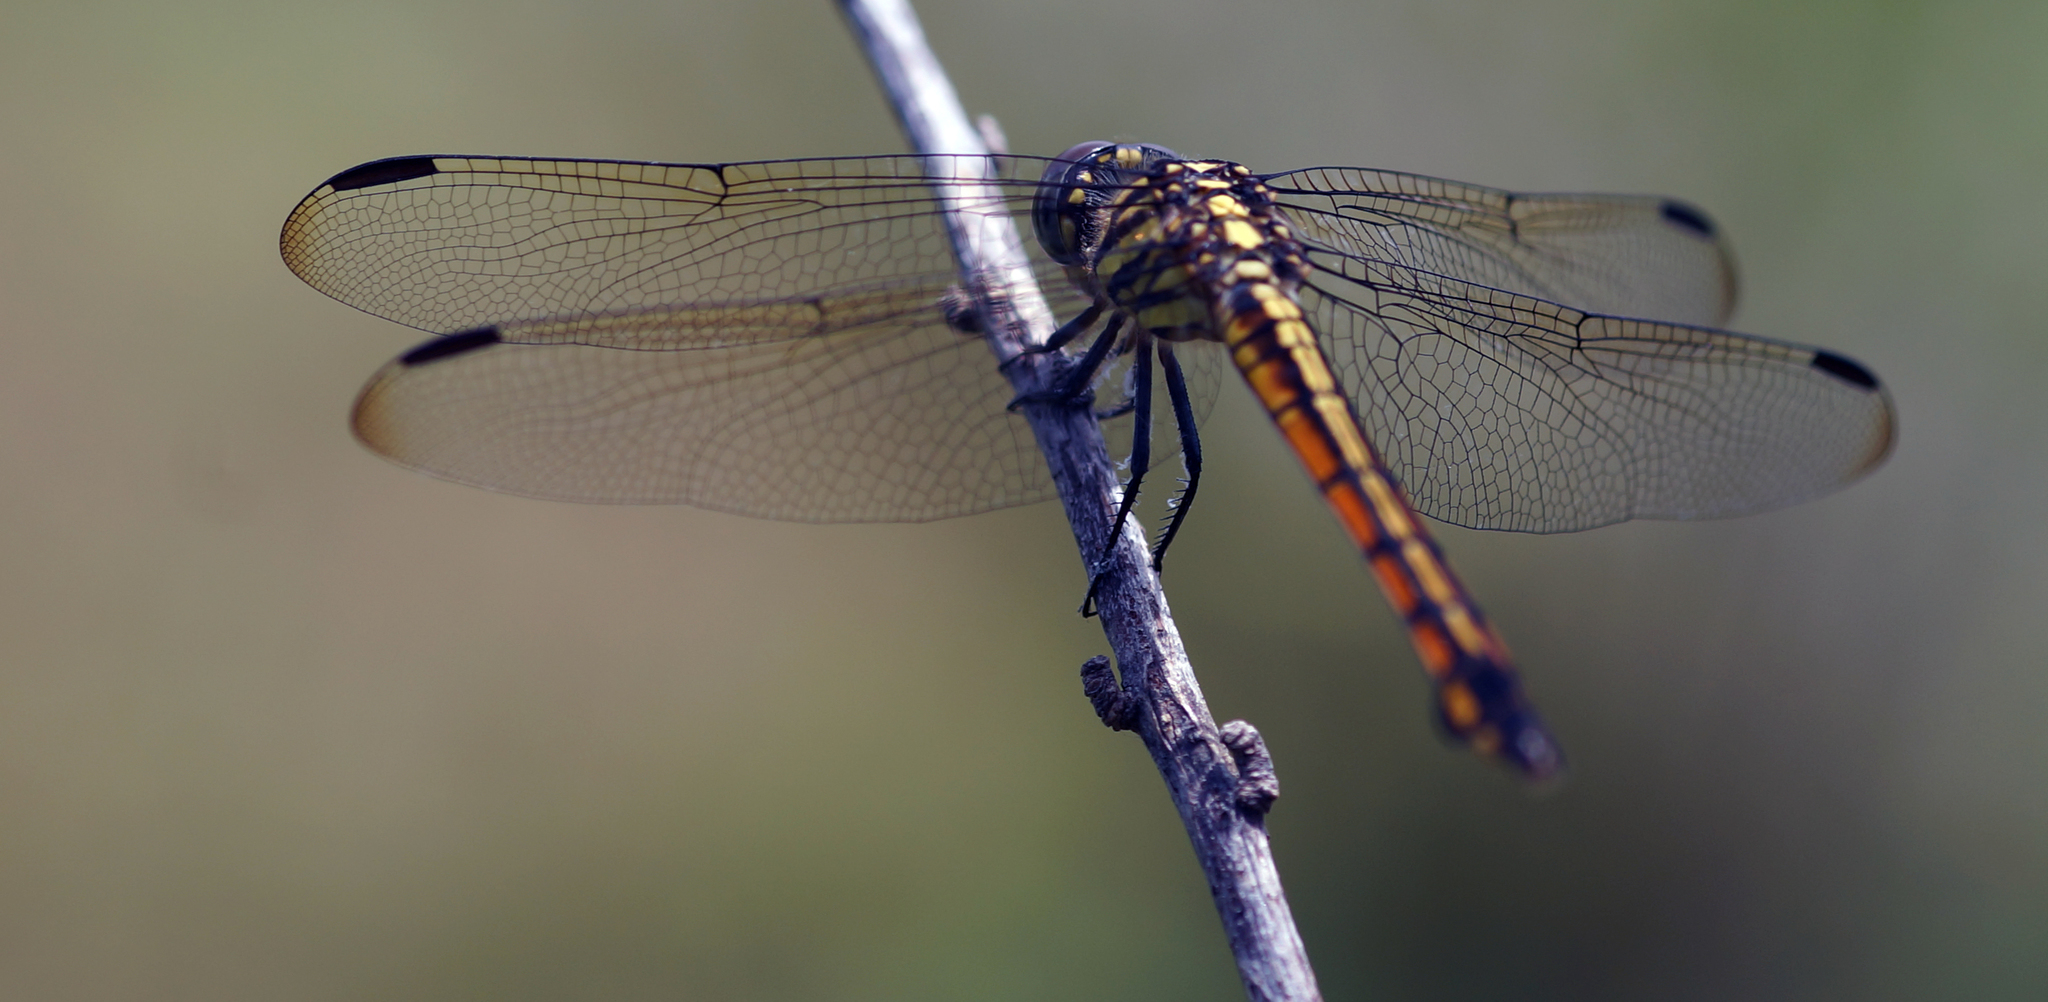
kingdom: Animalia
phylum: Arthropoda
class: Insecta
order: Odonata
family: Libellulidae
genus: Potamarcha
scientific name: Potamarcha congener
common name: Blue chaser
